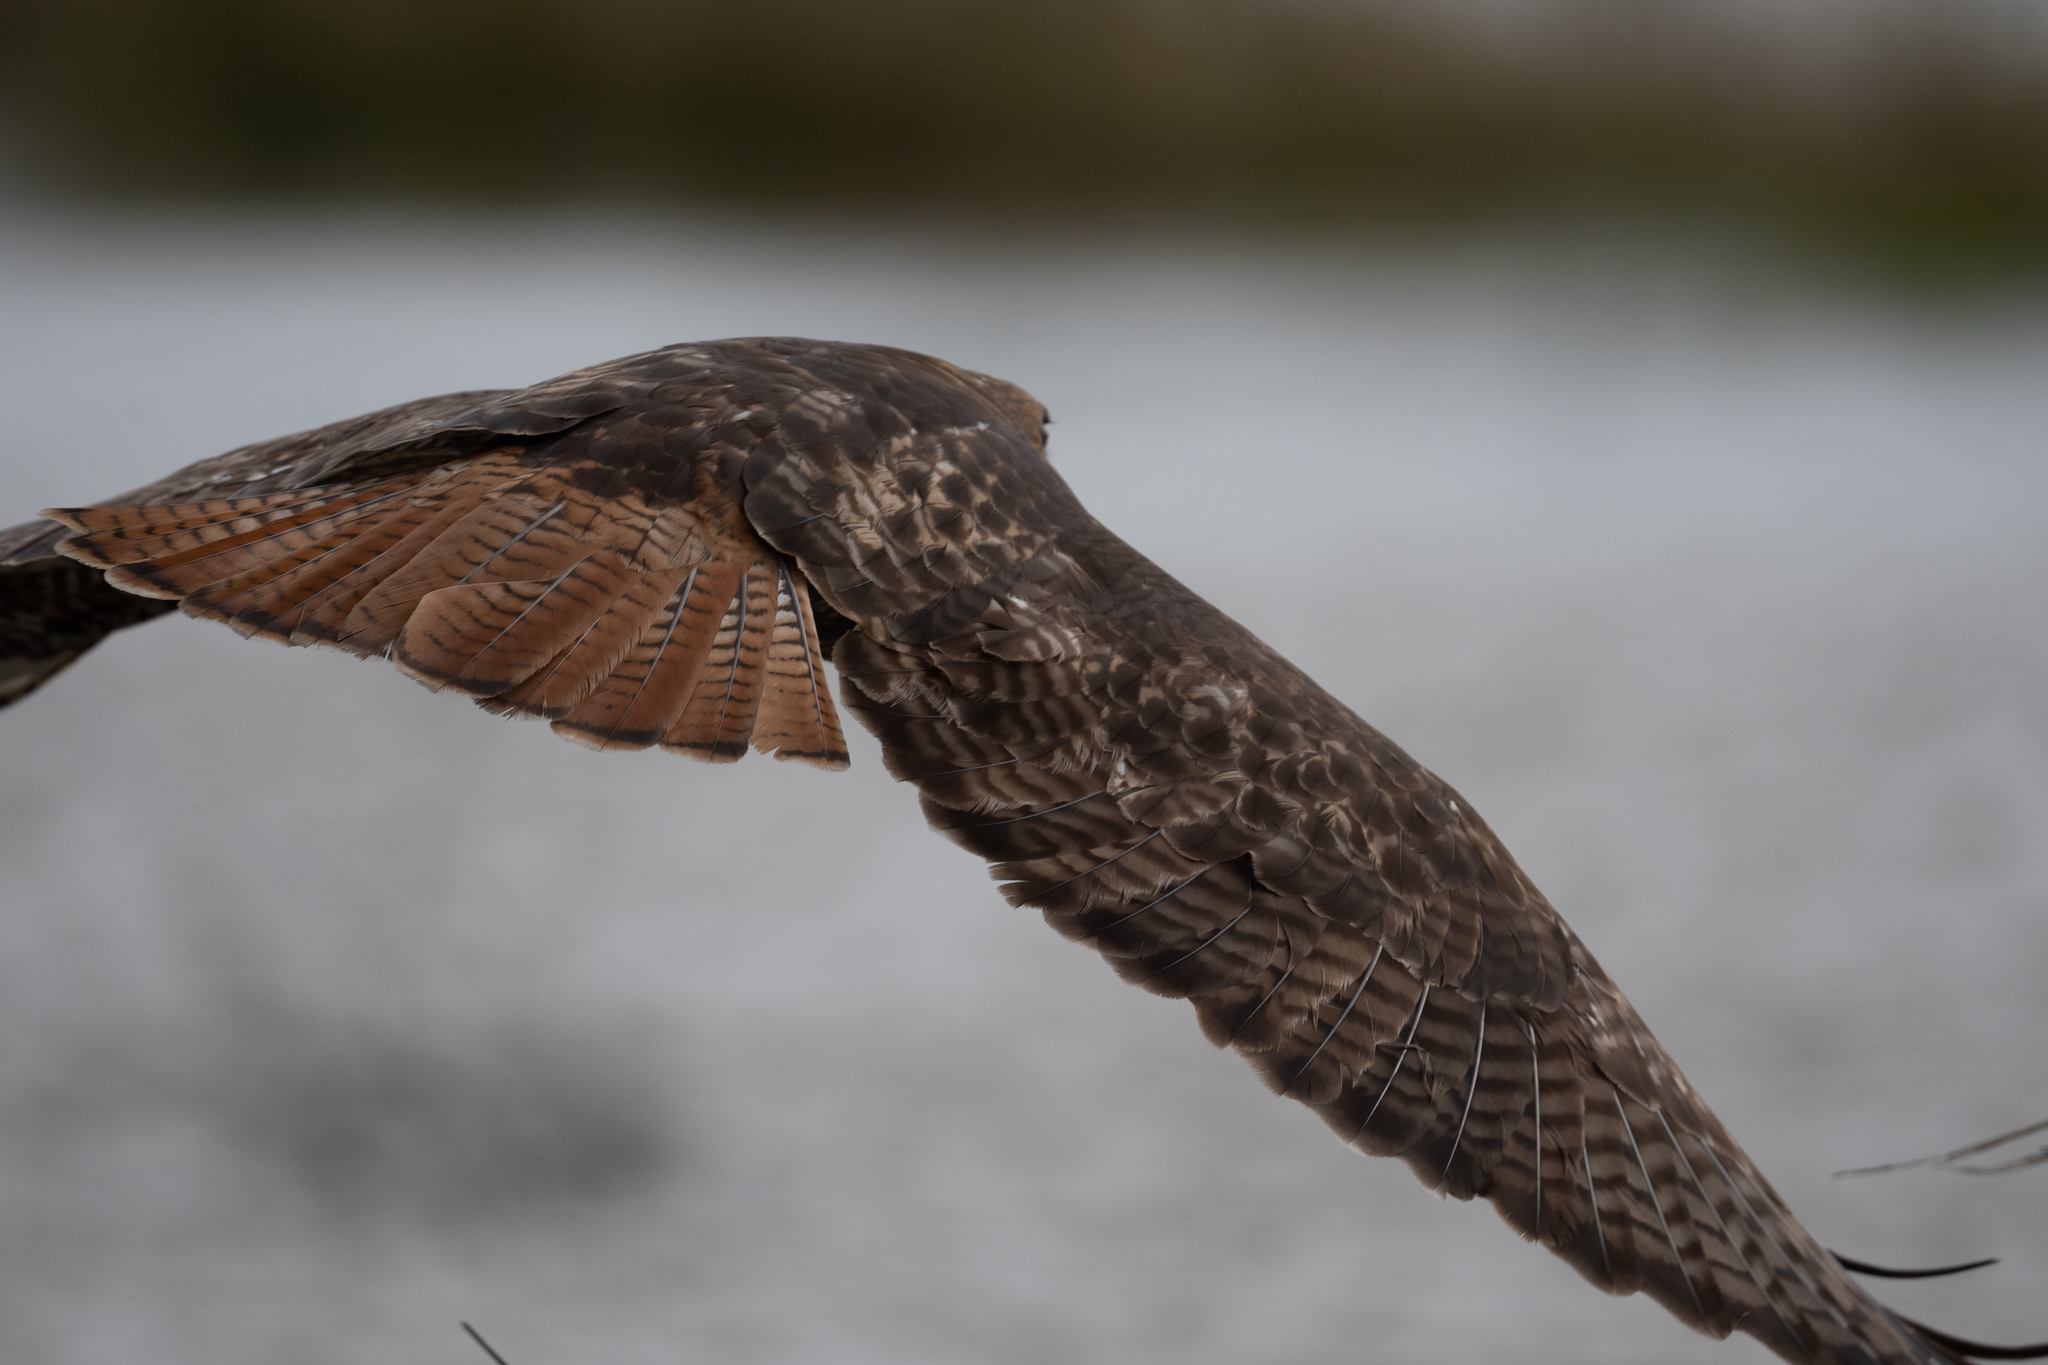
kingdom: Animalia
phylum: Chordata
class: Aves
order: Accipitriformes
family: Accipitridae
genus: Buteo
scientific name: Buteo jamaicensis
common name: Red-tailed hawk
